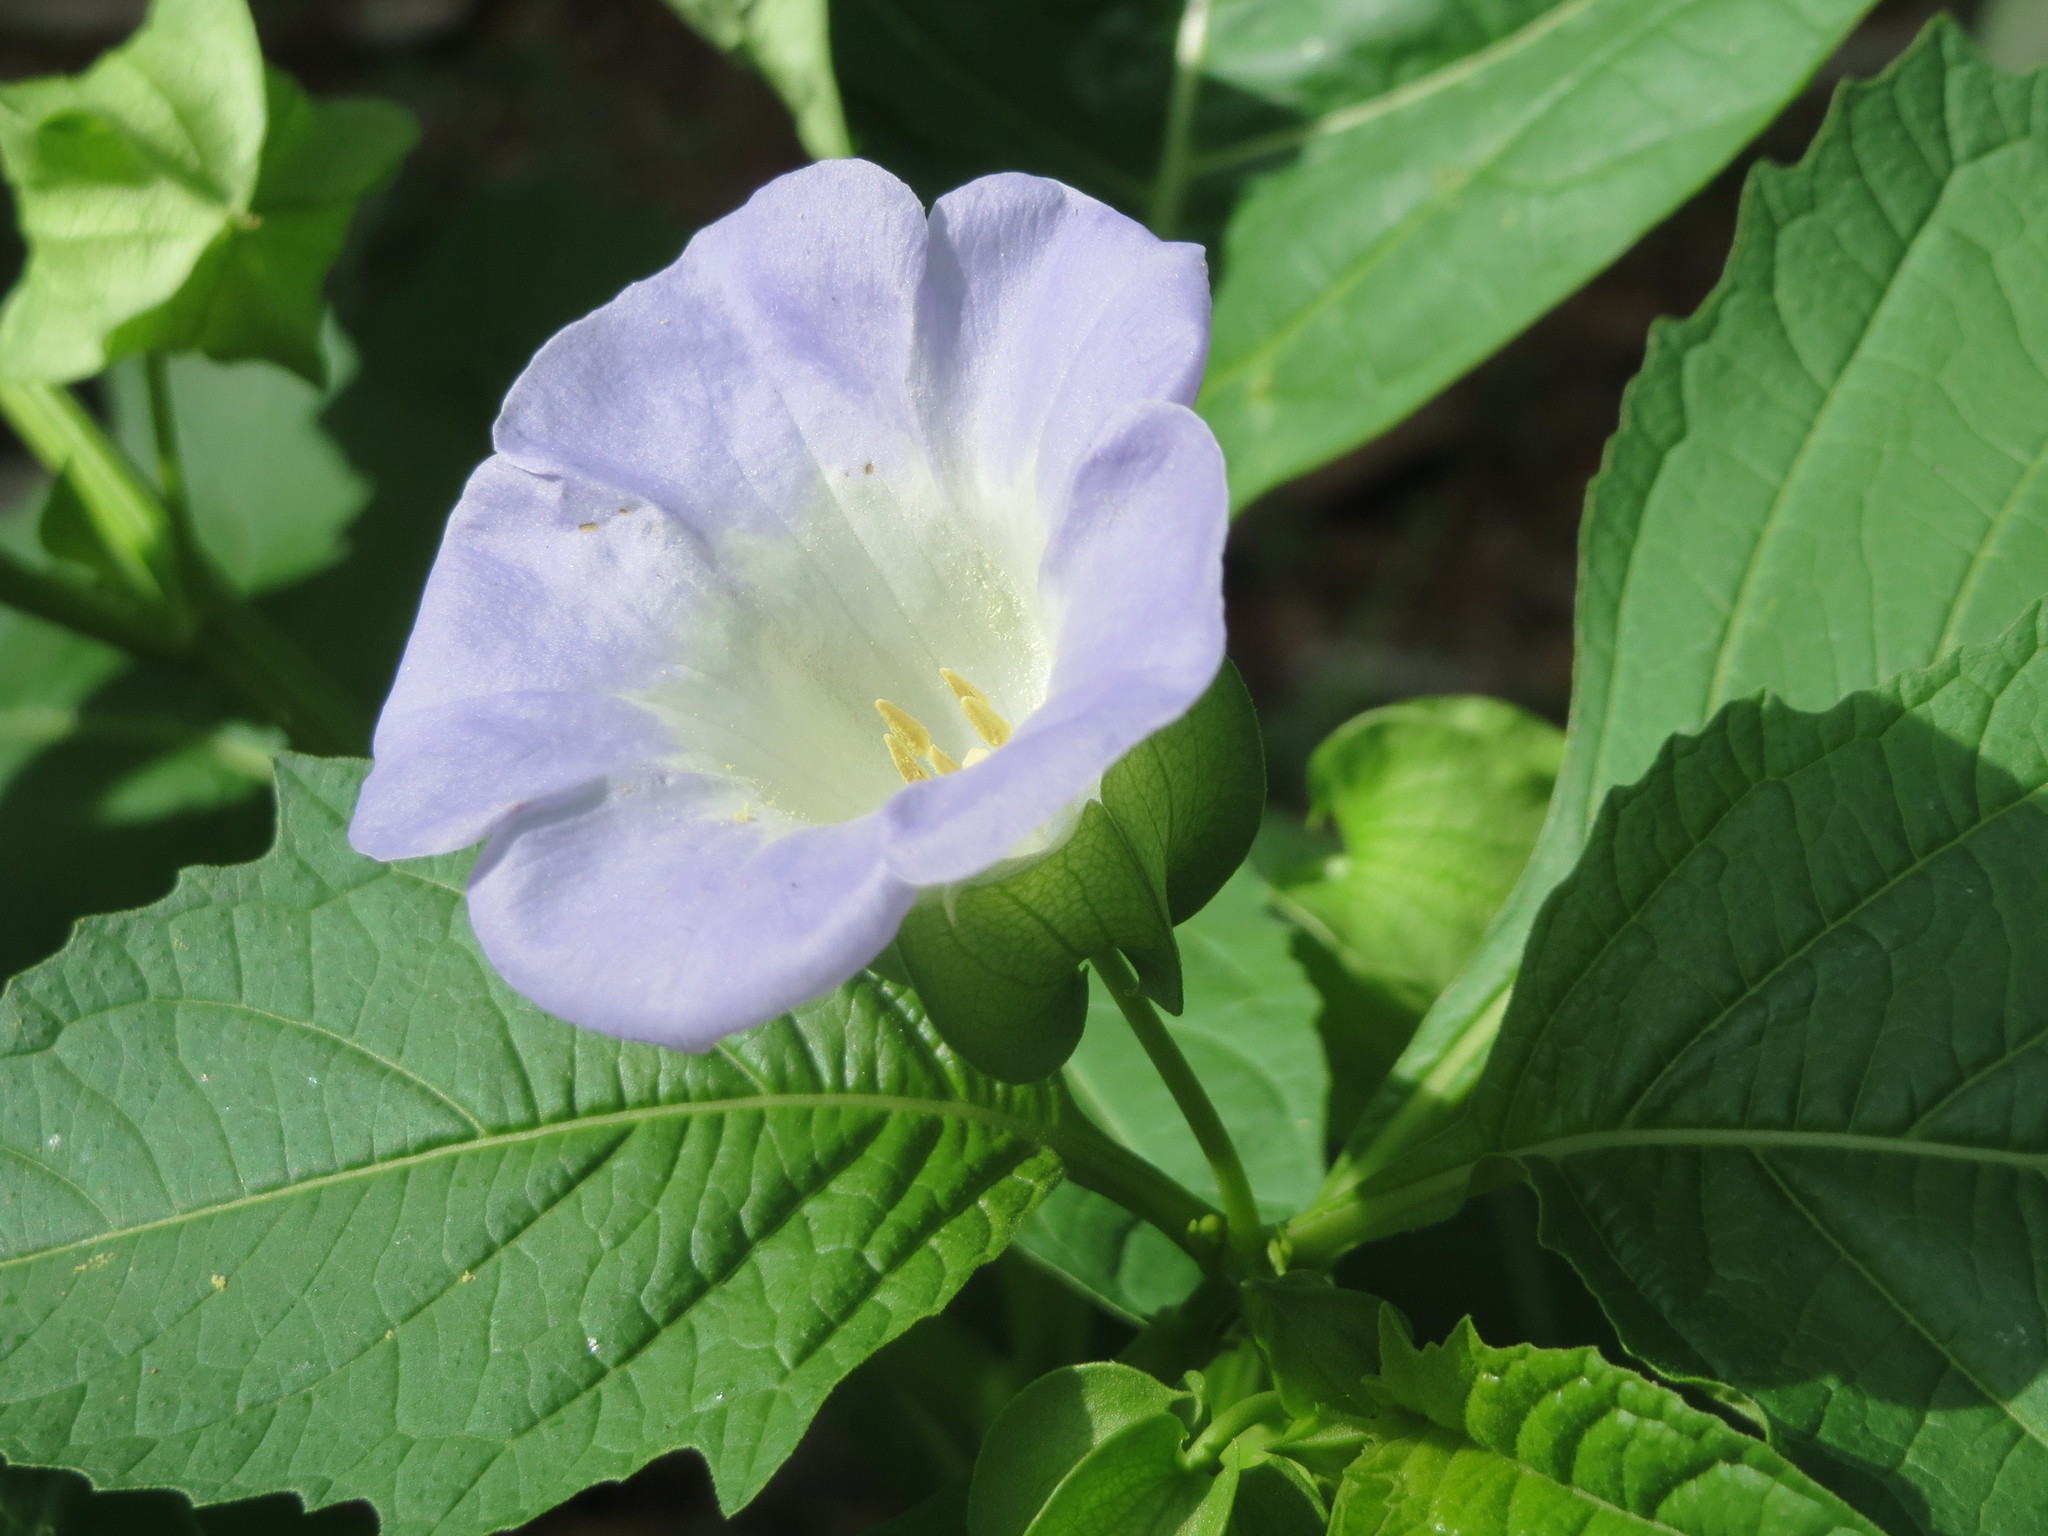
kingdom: Plantae
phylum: Tracheophyta
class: Magnoliopsida
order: Solanales
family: Solanaceae
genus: Nicandra
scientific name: Nicandra physalodes
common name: Apple-of-peru
